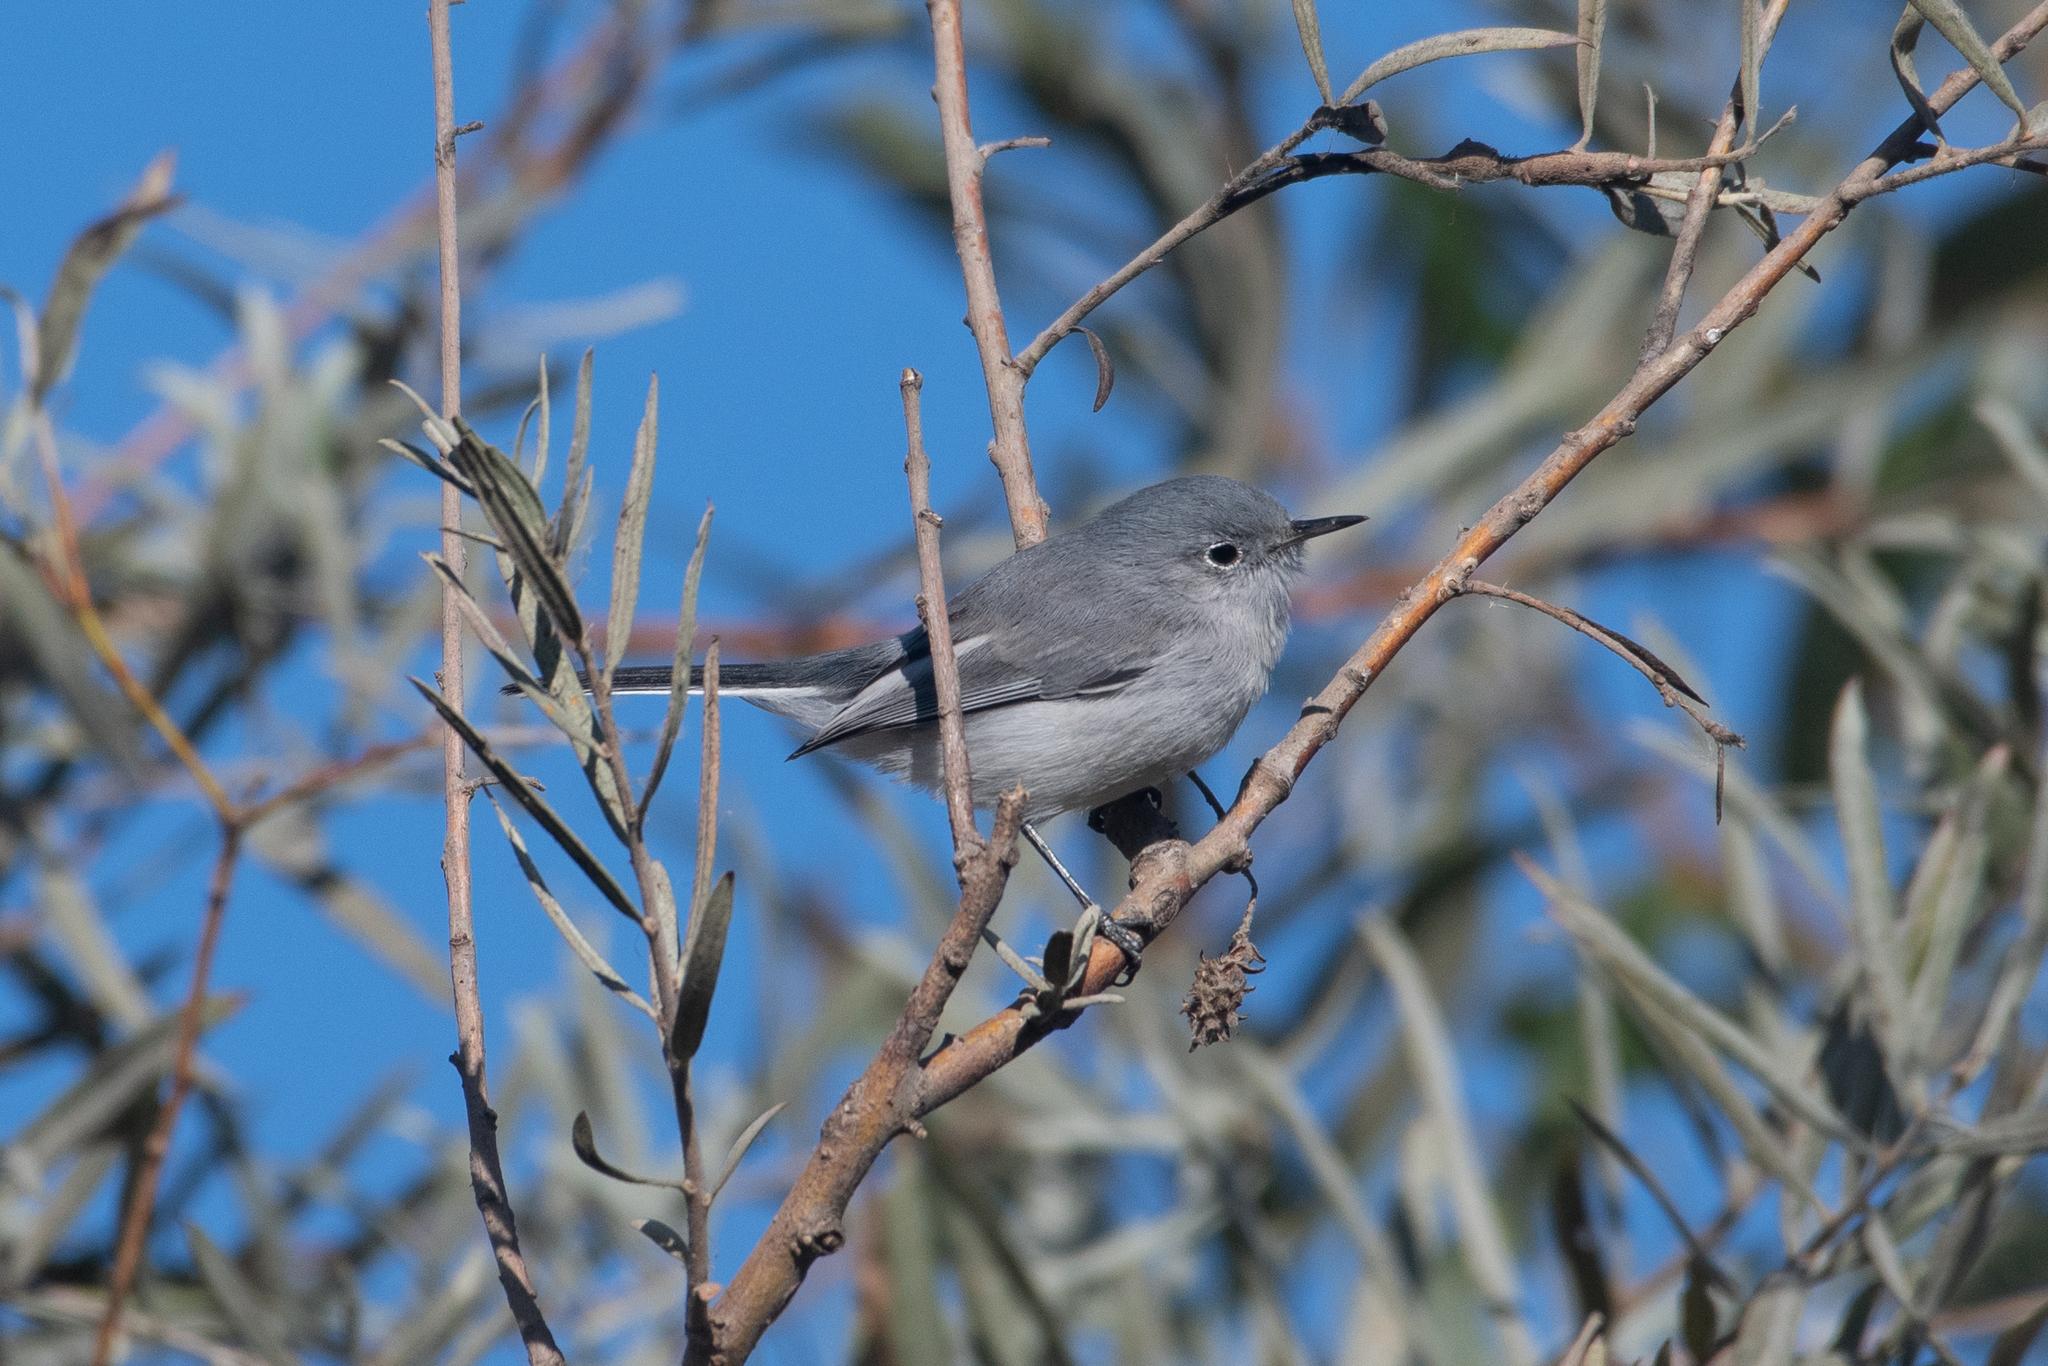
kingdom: Animalia
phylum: Chordata
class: Aves
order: Passeriformes
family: Polioptilidae
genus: Polioptila
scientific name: Polioptila caerulea
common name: Blue-gray gnatcatcher
